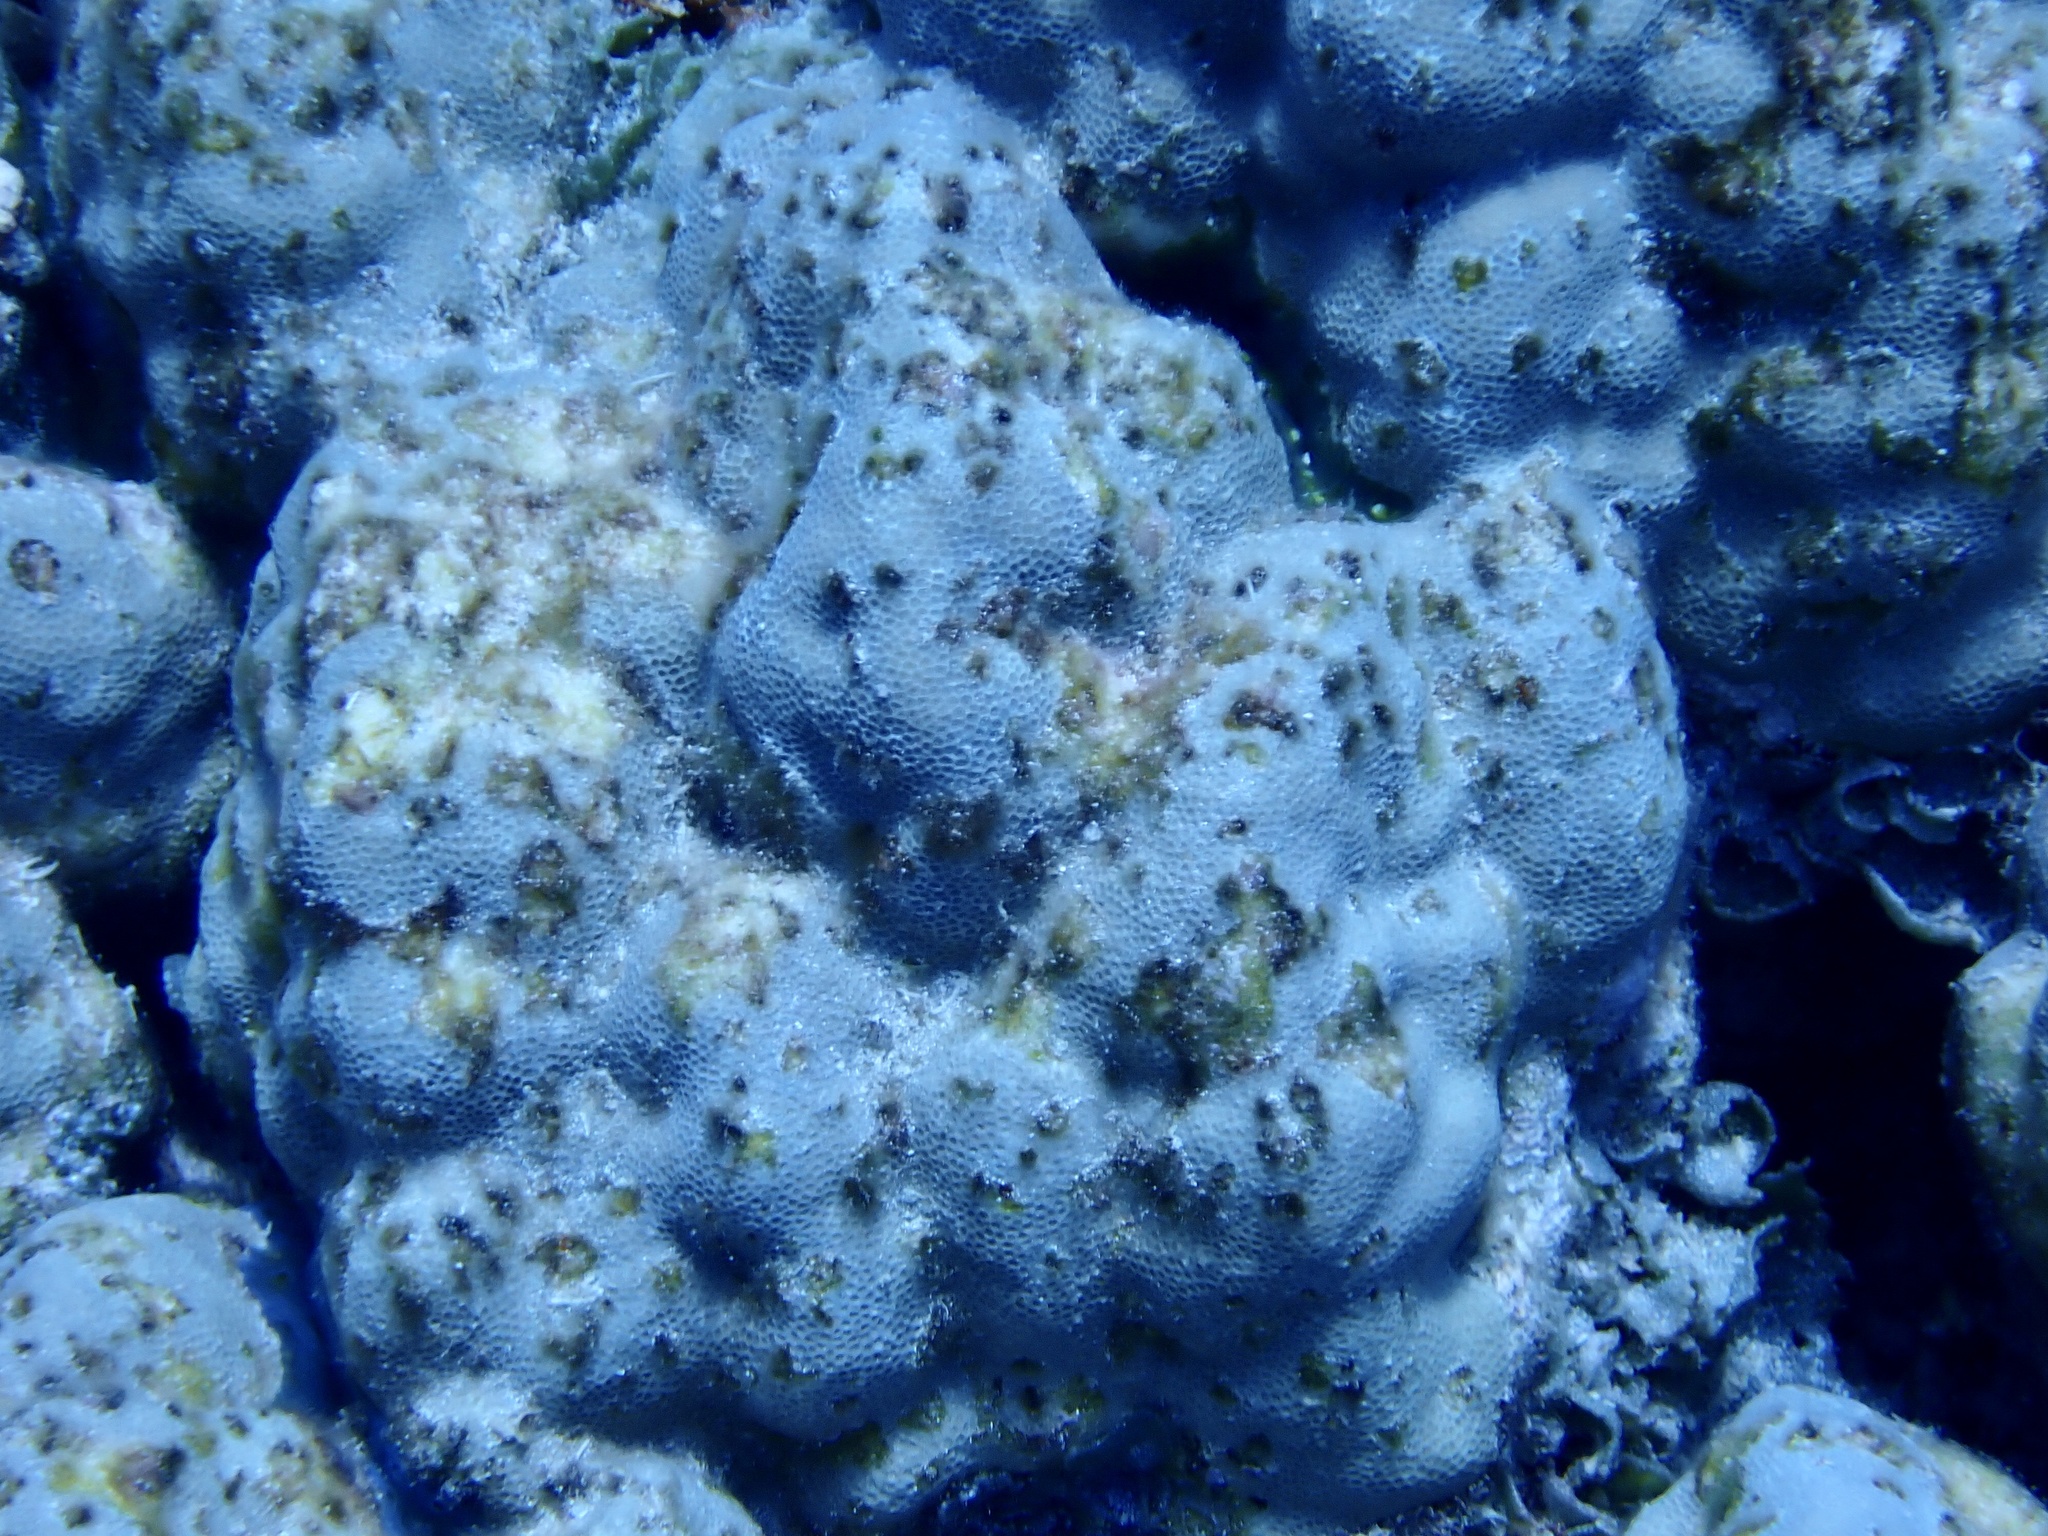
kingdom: Animalia
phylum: Cnidaria
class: Anthozoa
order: Scleractinia
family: Poritidae
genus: Porites
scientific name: Porites
